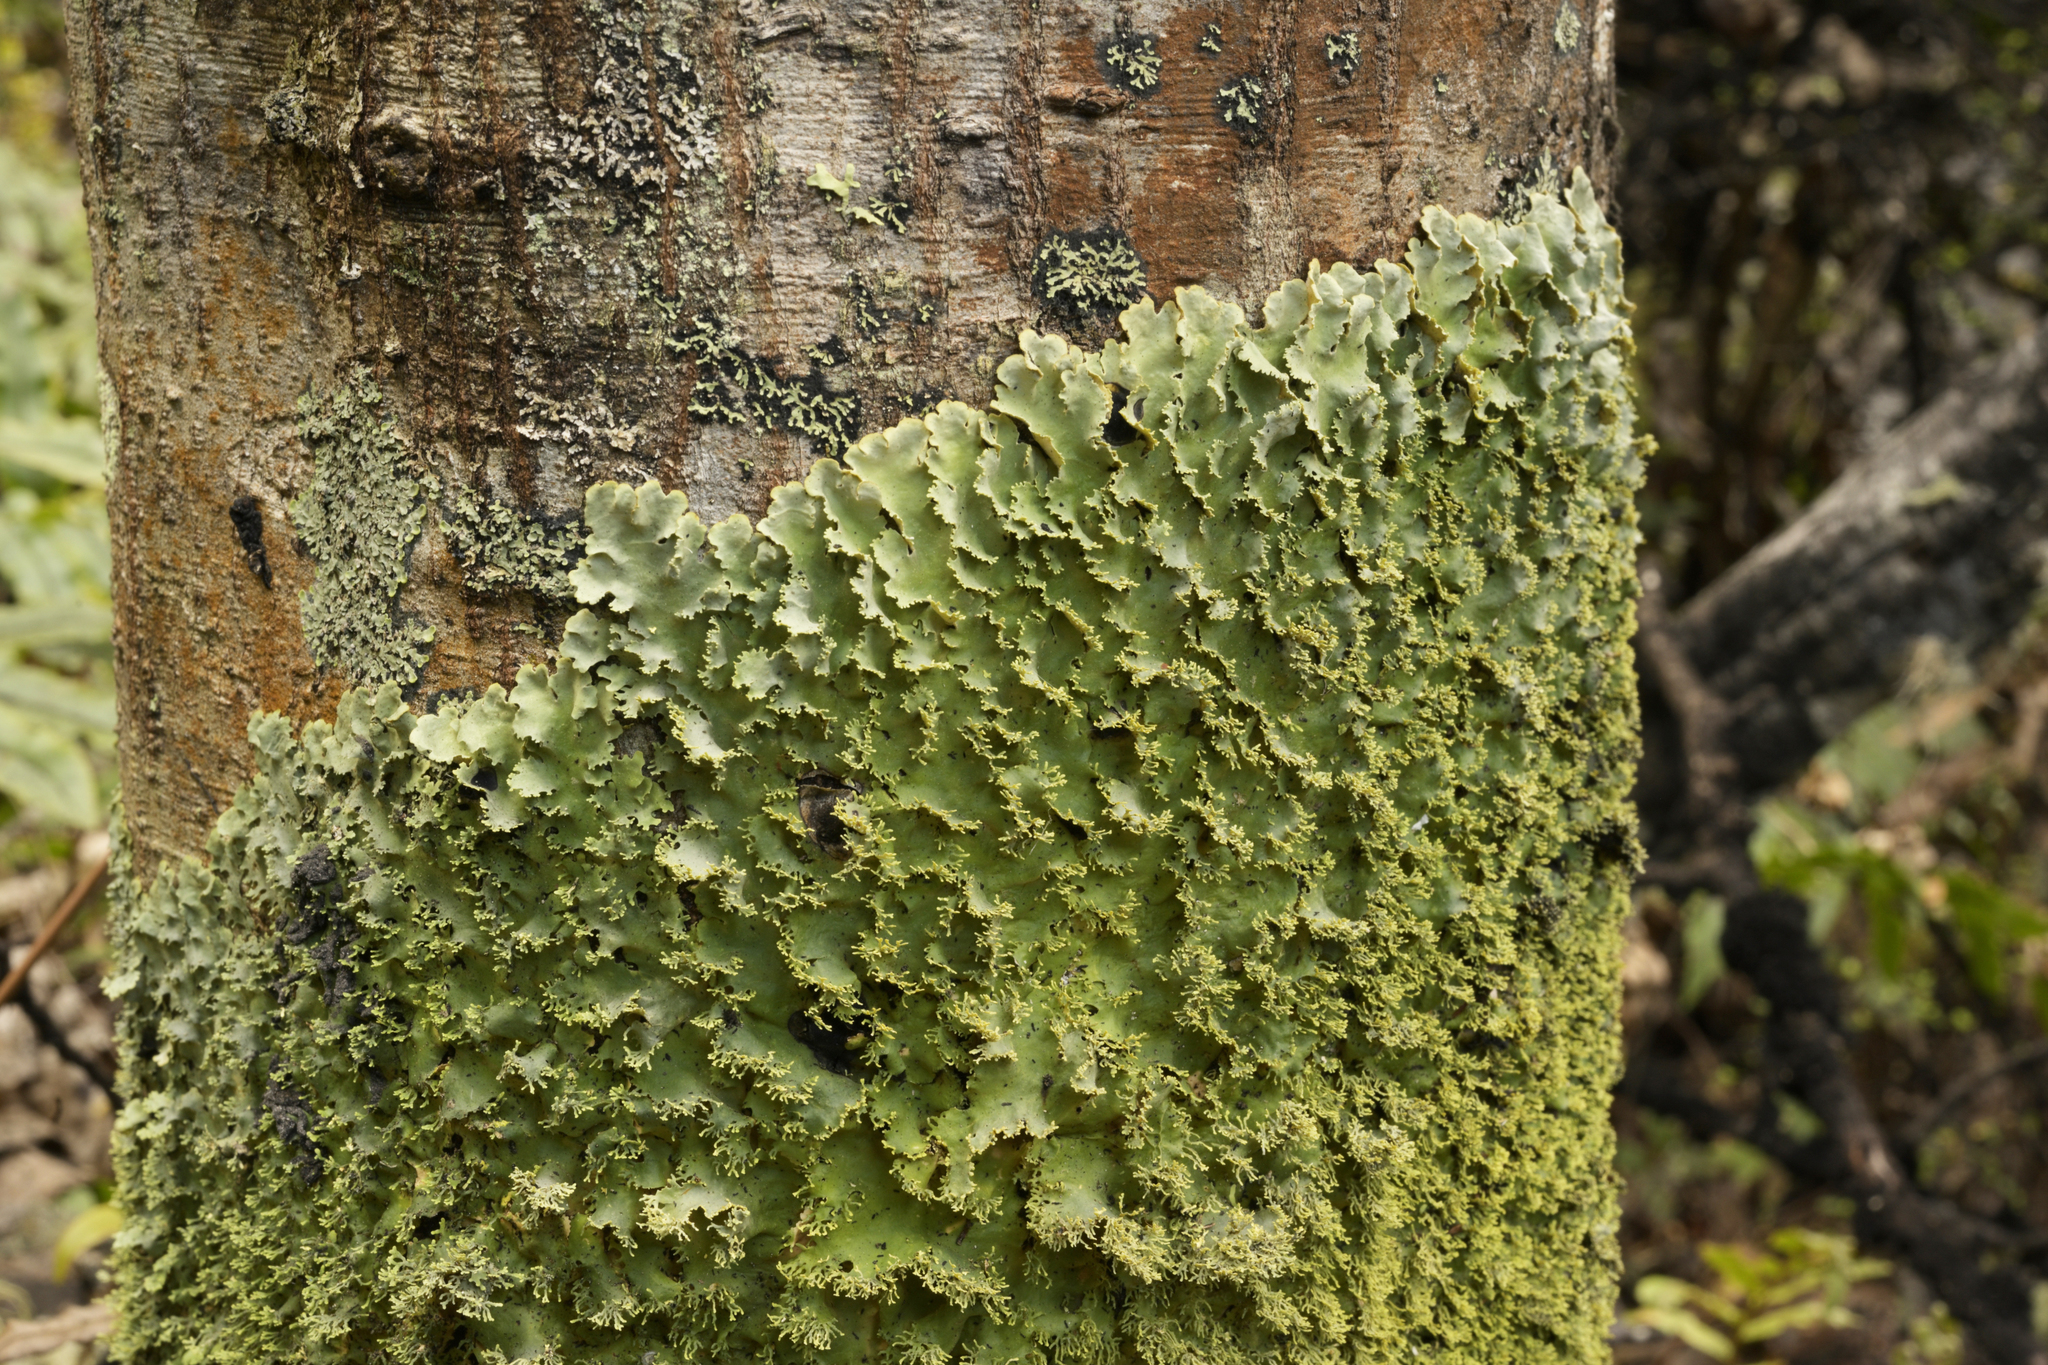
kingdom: Fungi
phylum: Ascomycota
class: Lecanoromycetes
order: Peltigerales
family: Lobariaceae
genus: Podostictina
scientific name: Podostictina pickeringii
